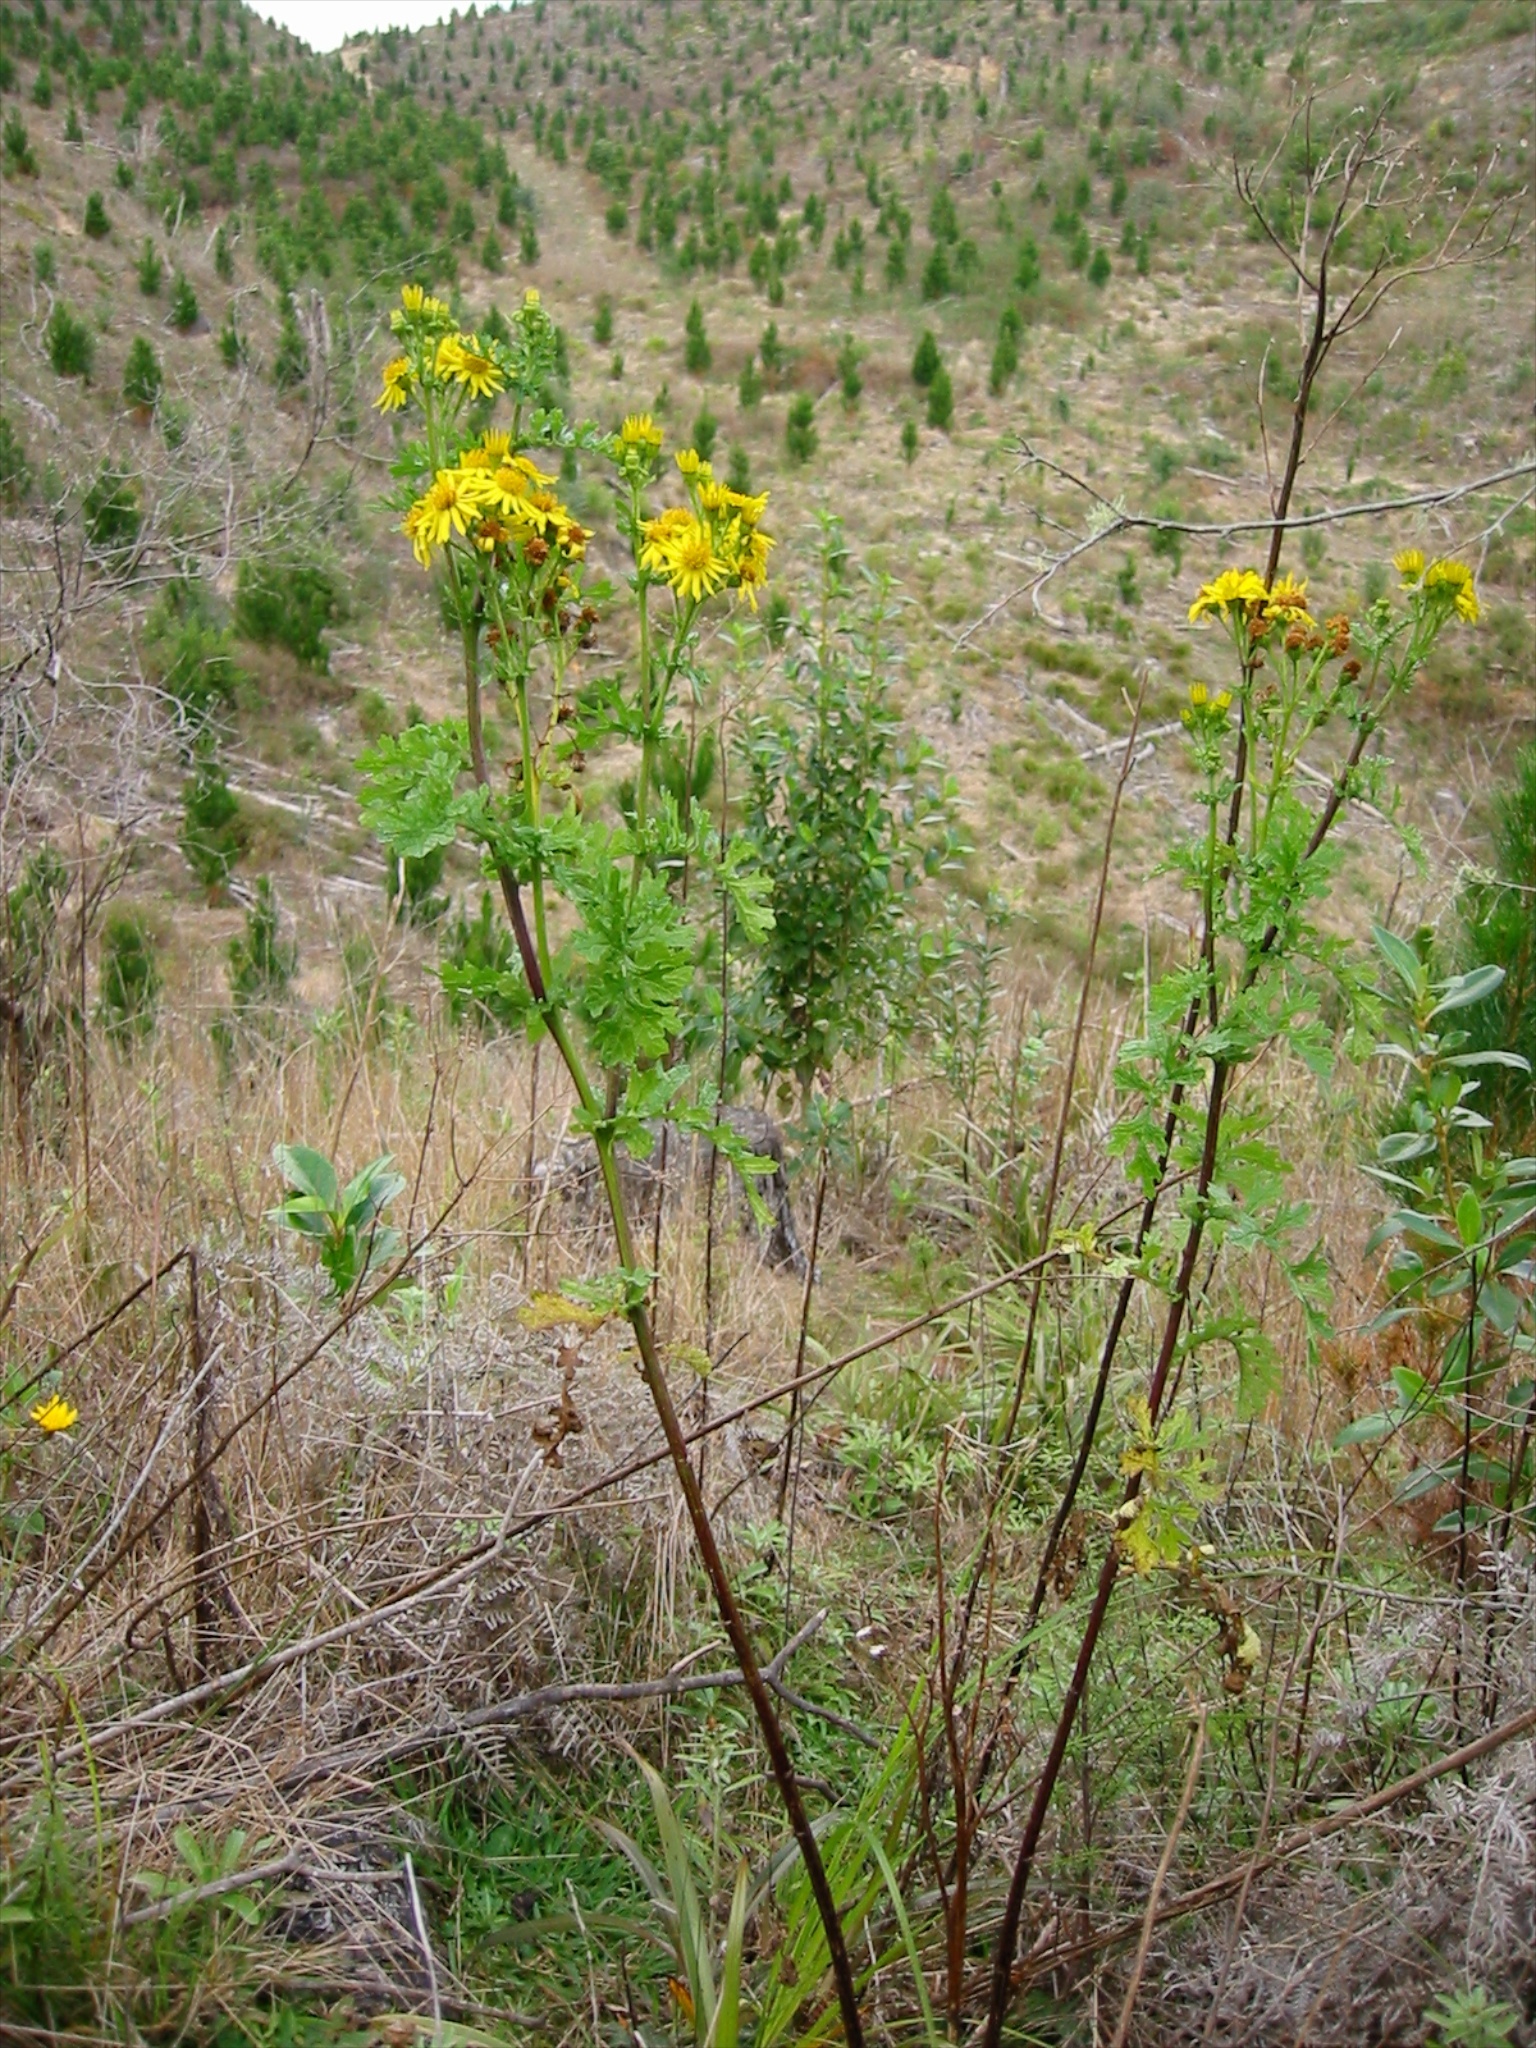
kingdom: Plantae
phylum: Tracheophyta
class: Magnoliopsida
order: Asterales
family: Asteraceae
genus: Jacobaea
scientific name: Jacobaea vulgaris
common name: Stinking willie
